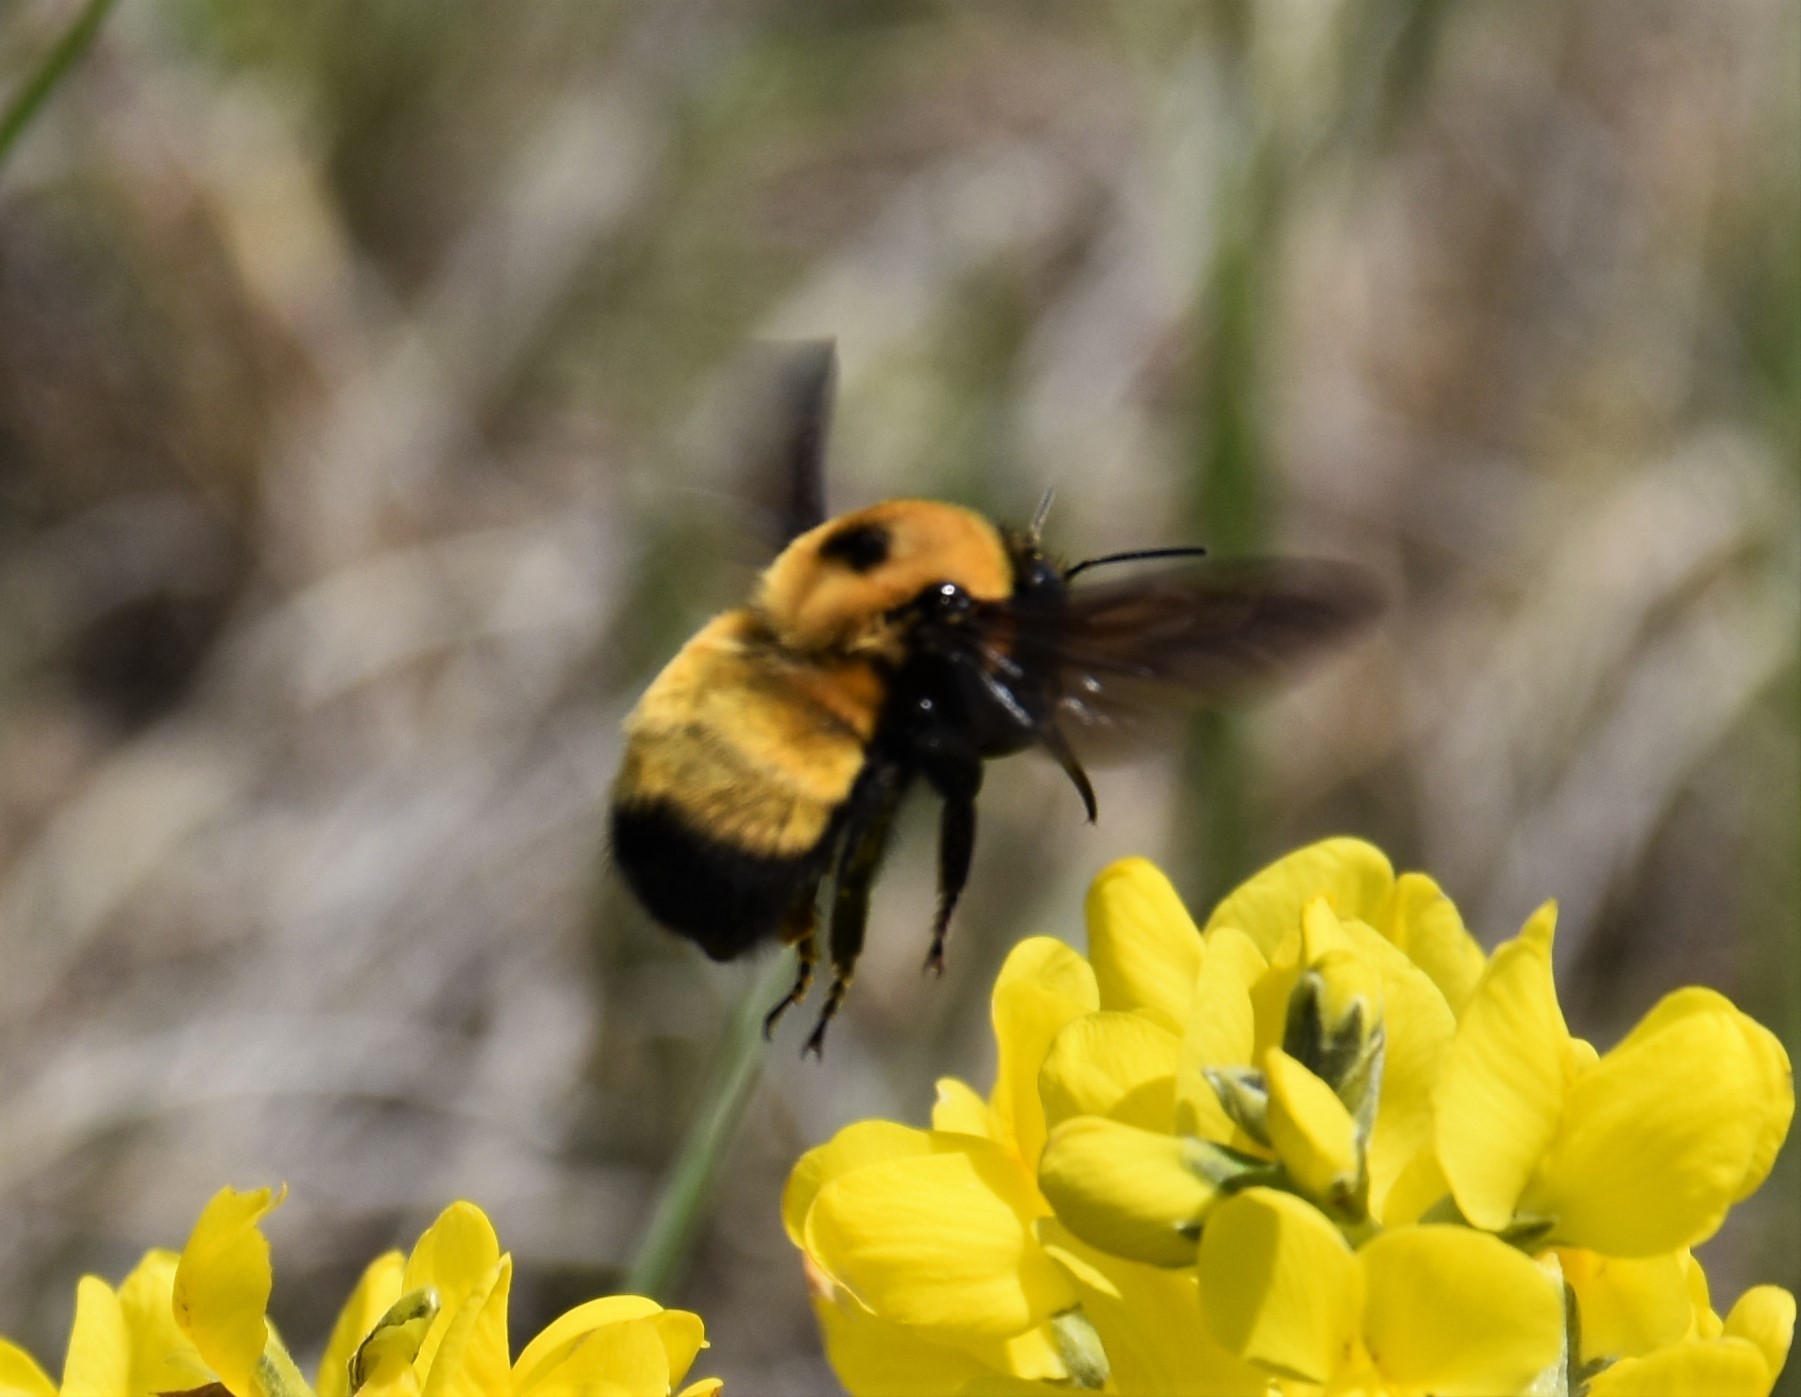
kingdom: Animalia
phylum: Arthropoda
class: Insecta
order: Hymenoptera
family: Apidae
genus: Bombus
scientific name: Bombus nevadensis
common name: Nevada bumble bee
